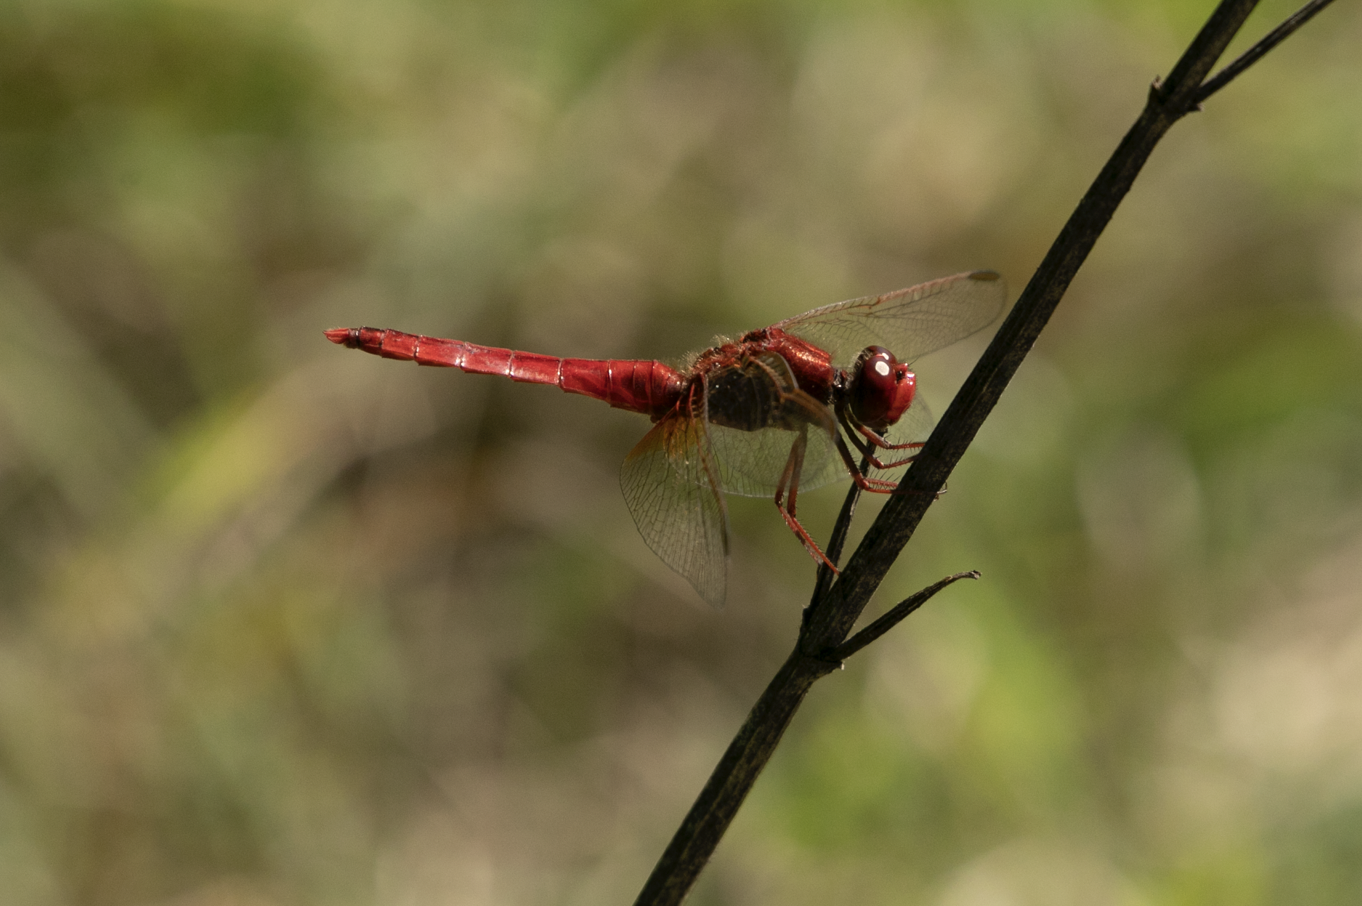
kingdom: Animalia
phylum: Arthropoda
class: Insecta
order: Odonata
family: Libellulidae
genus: Crocothemis
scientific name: Crocothemis erythraea
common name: Scarlet dragonfly
